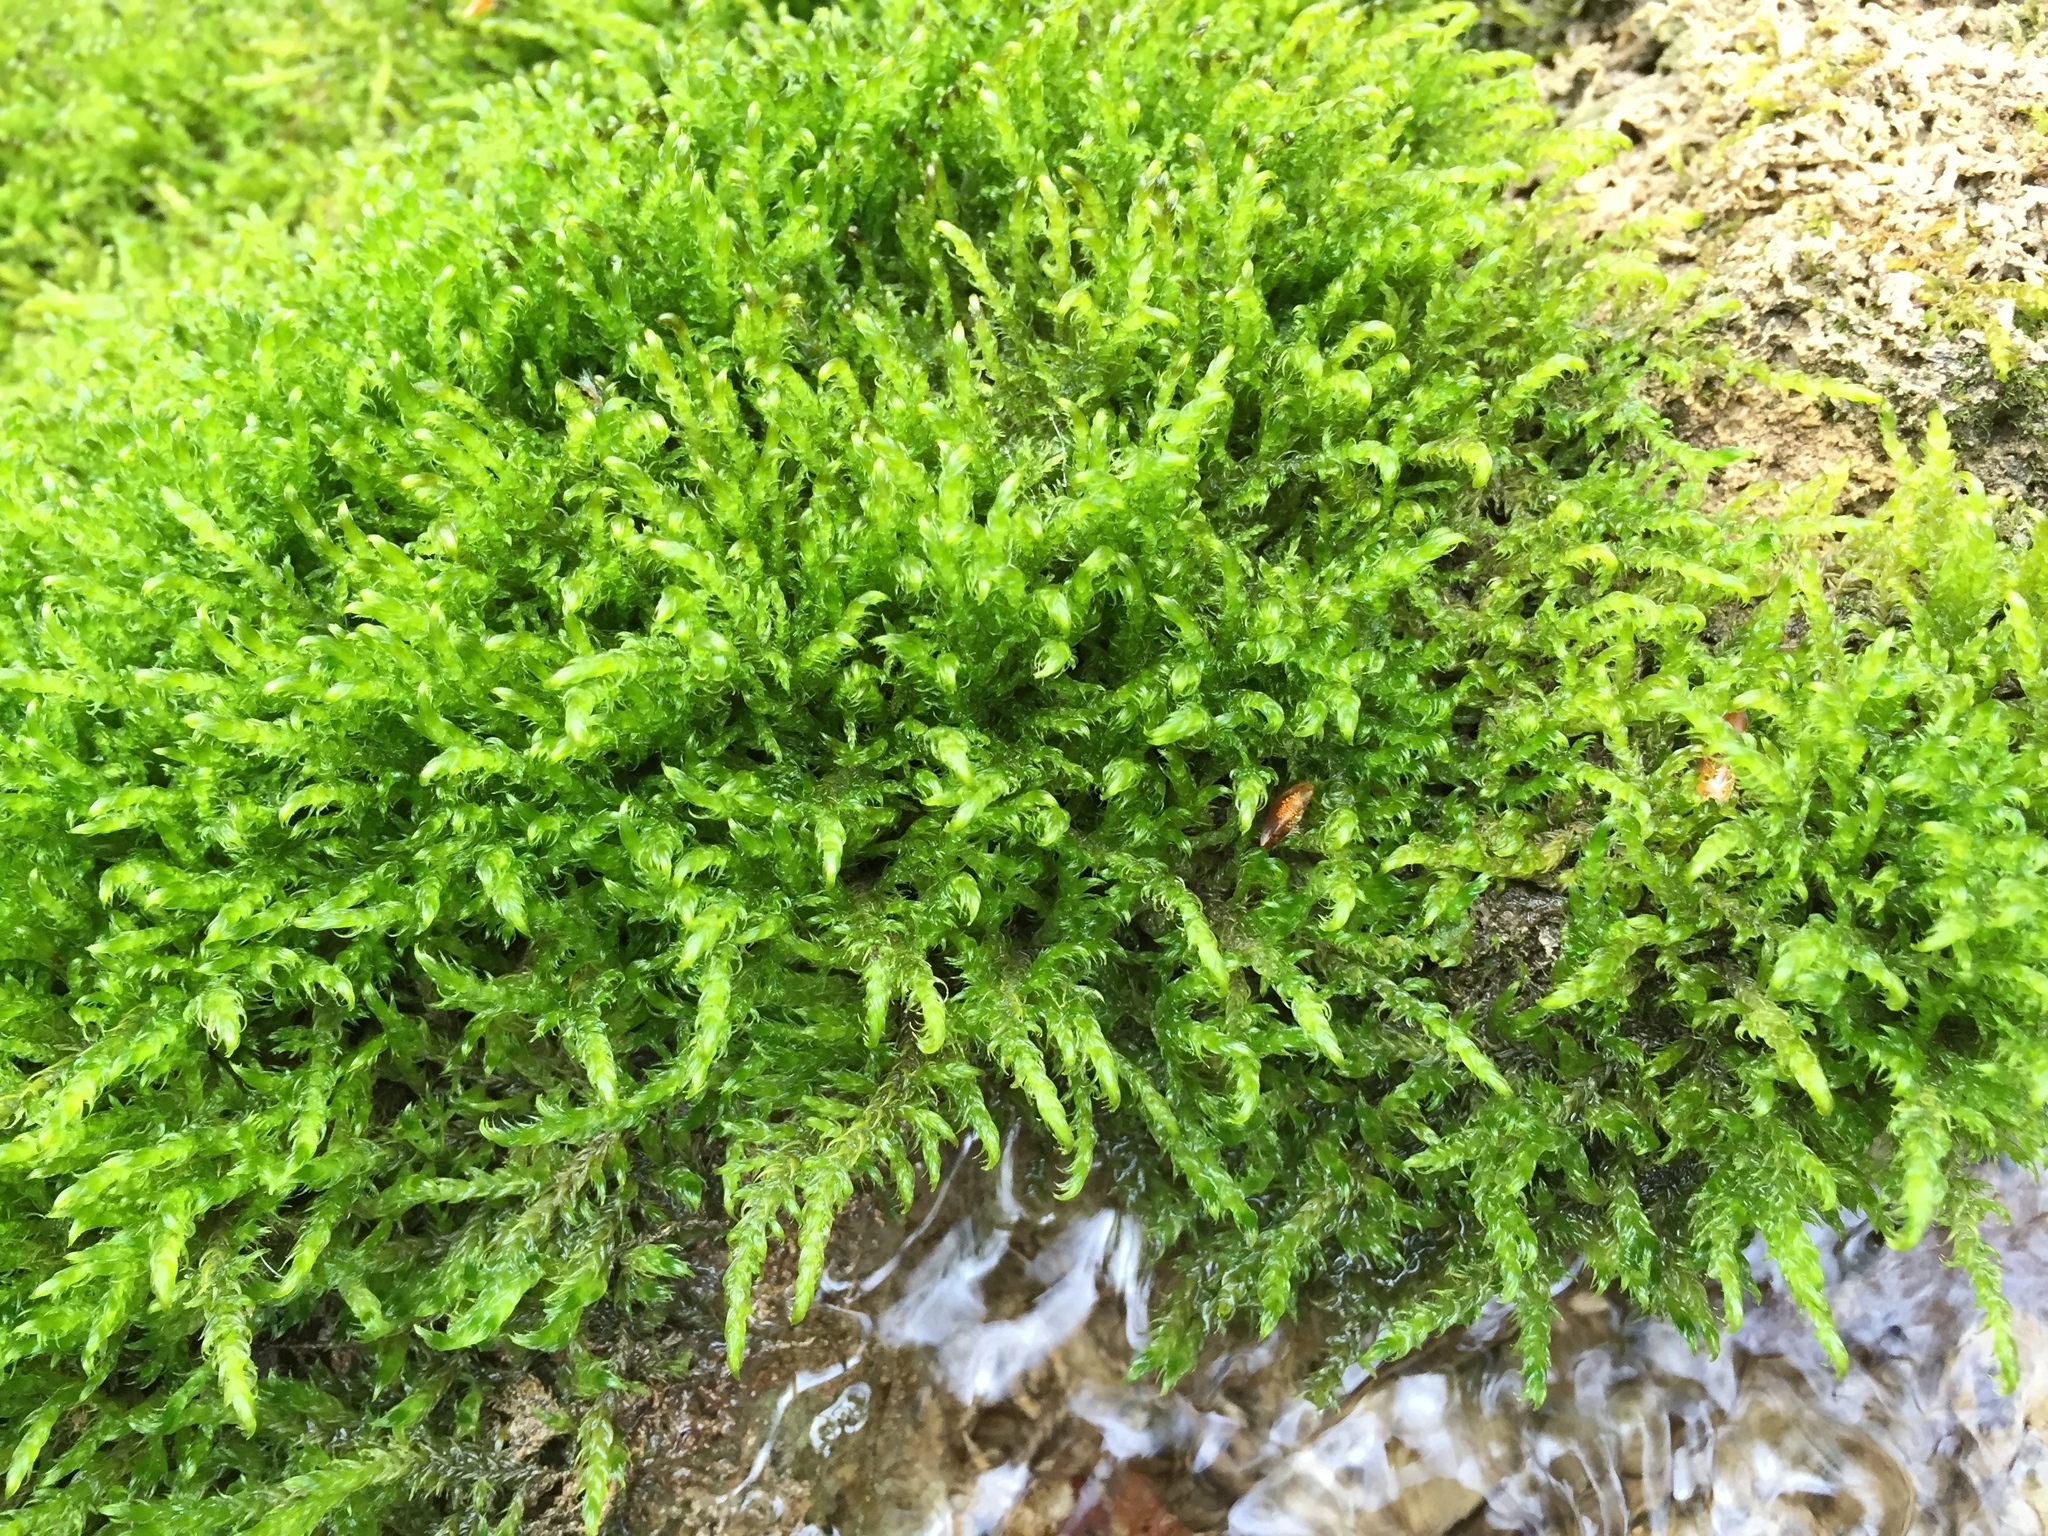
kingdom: Plantae
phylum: Bryophyta
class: Bryopsida
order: Hypnales
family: Amblystegiaceae
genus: Cratoneuron
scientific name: Cratoneuron filicinum
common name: Fern-leaved hook moss
